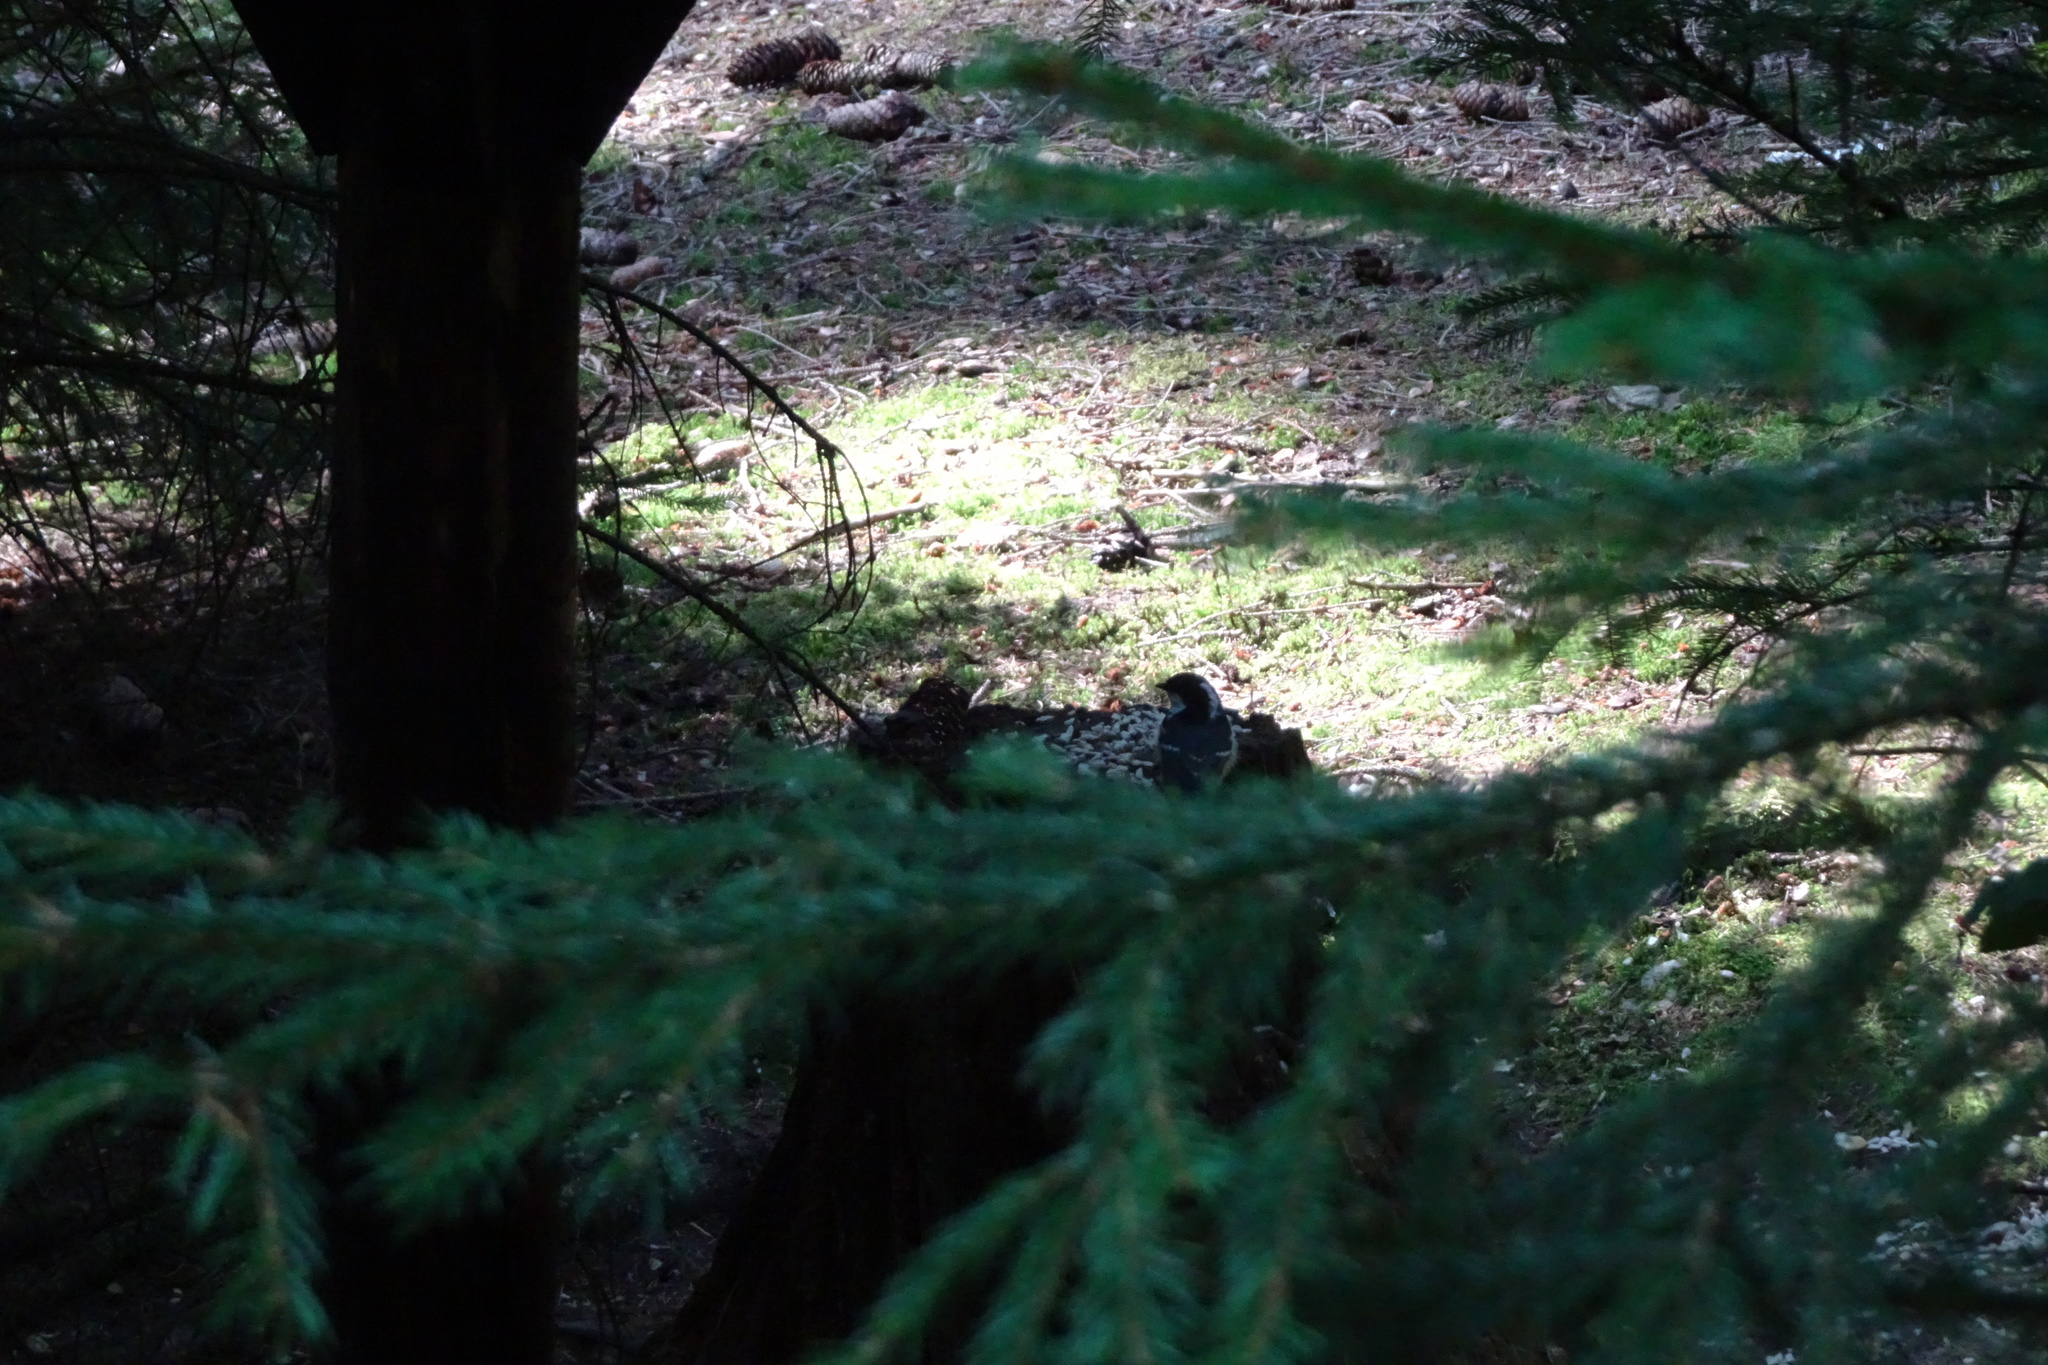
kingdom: Animalia
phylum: Chordata
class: Aves
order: Passeriformes
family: Paridae
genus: Periparus
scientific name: Periparus ater
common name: Coal tit
